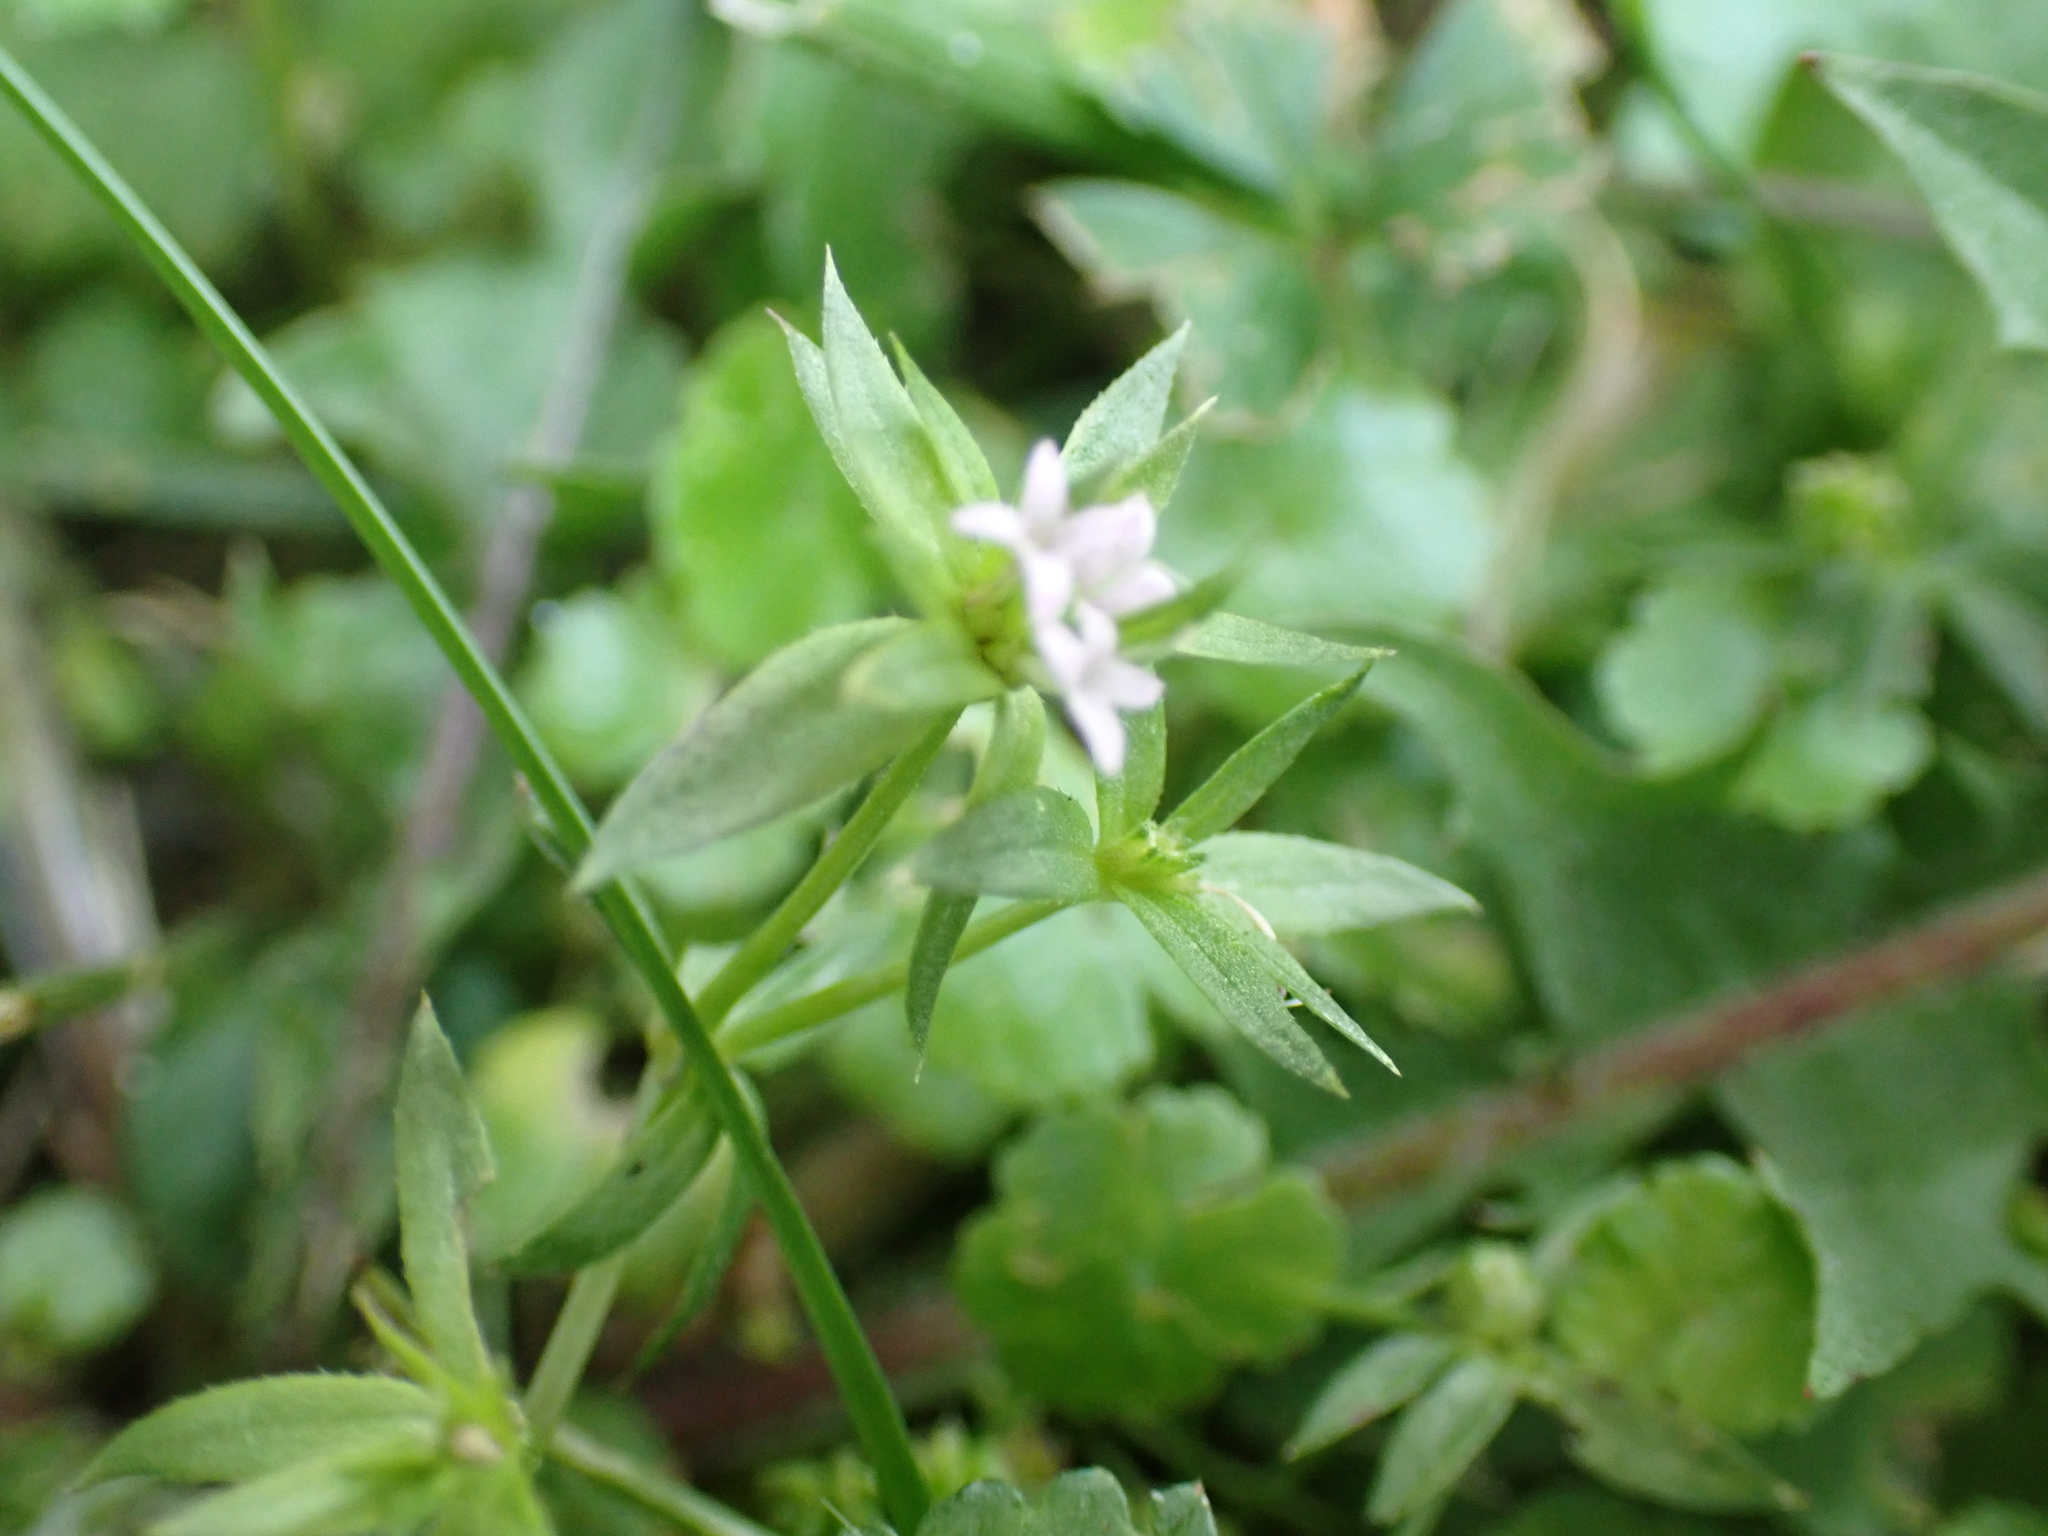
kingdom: Plantae
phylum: Tracheophyta
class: Magnoliopsida
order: Gentianales
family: Rubiaceae
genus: Sherardia
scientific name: Sherardia arvensis
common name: Field madder
